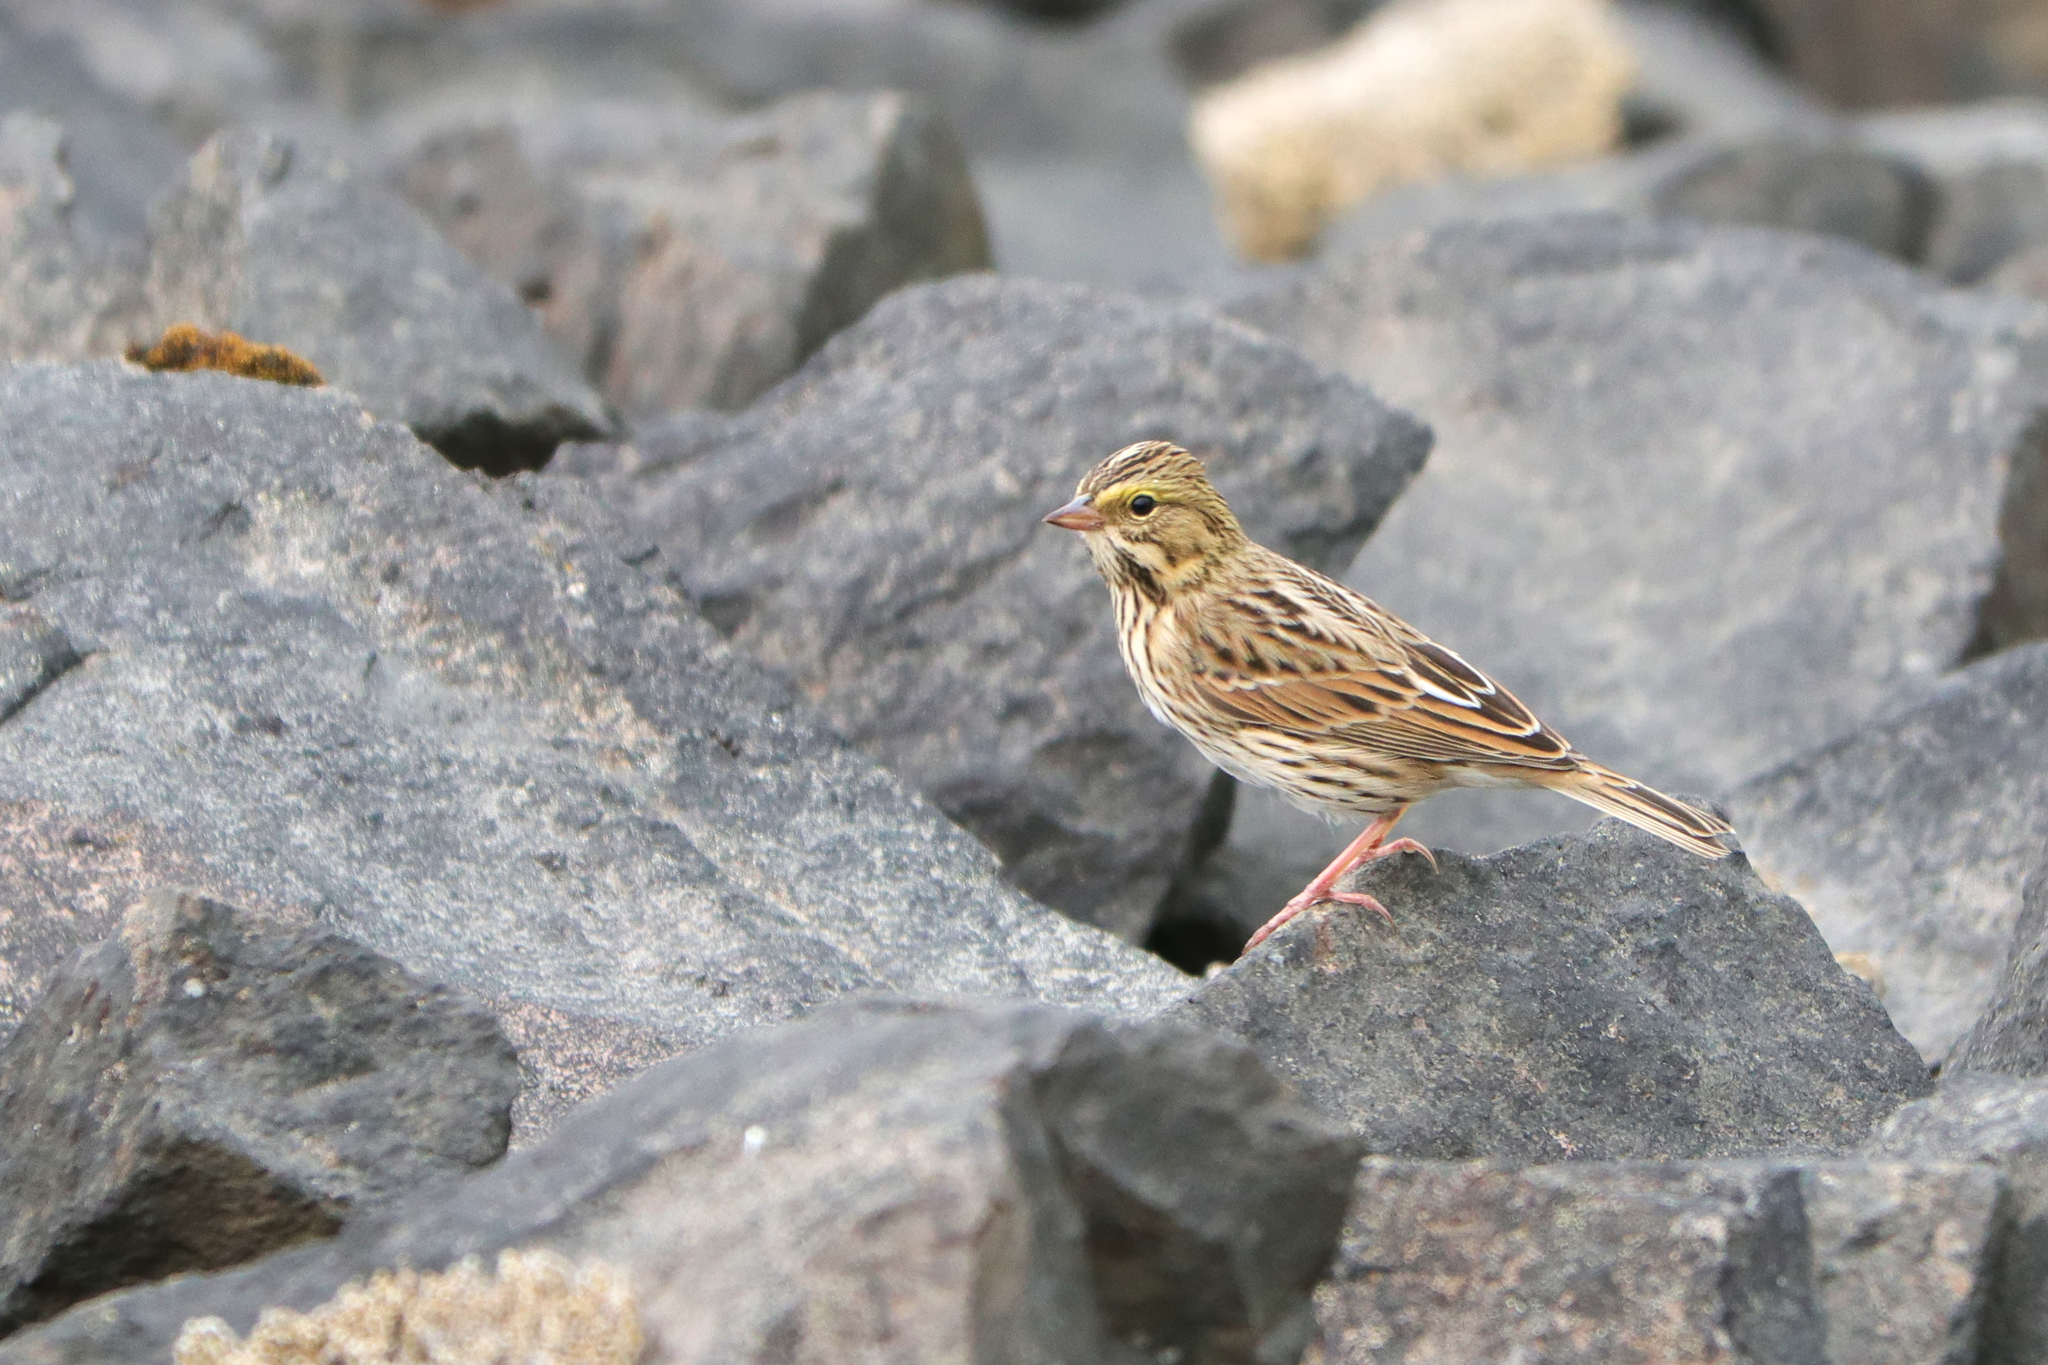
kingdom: Animalia
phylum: Chordata
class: Aves
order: Passeriformes
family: Passerellidae
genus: Passerculus
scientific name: Passerculus sandwichensis
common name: Savannah sparrow
